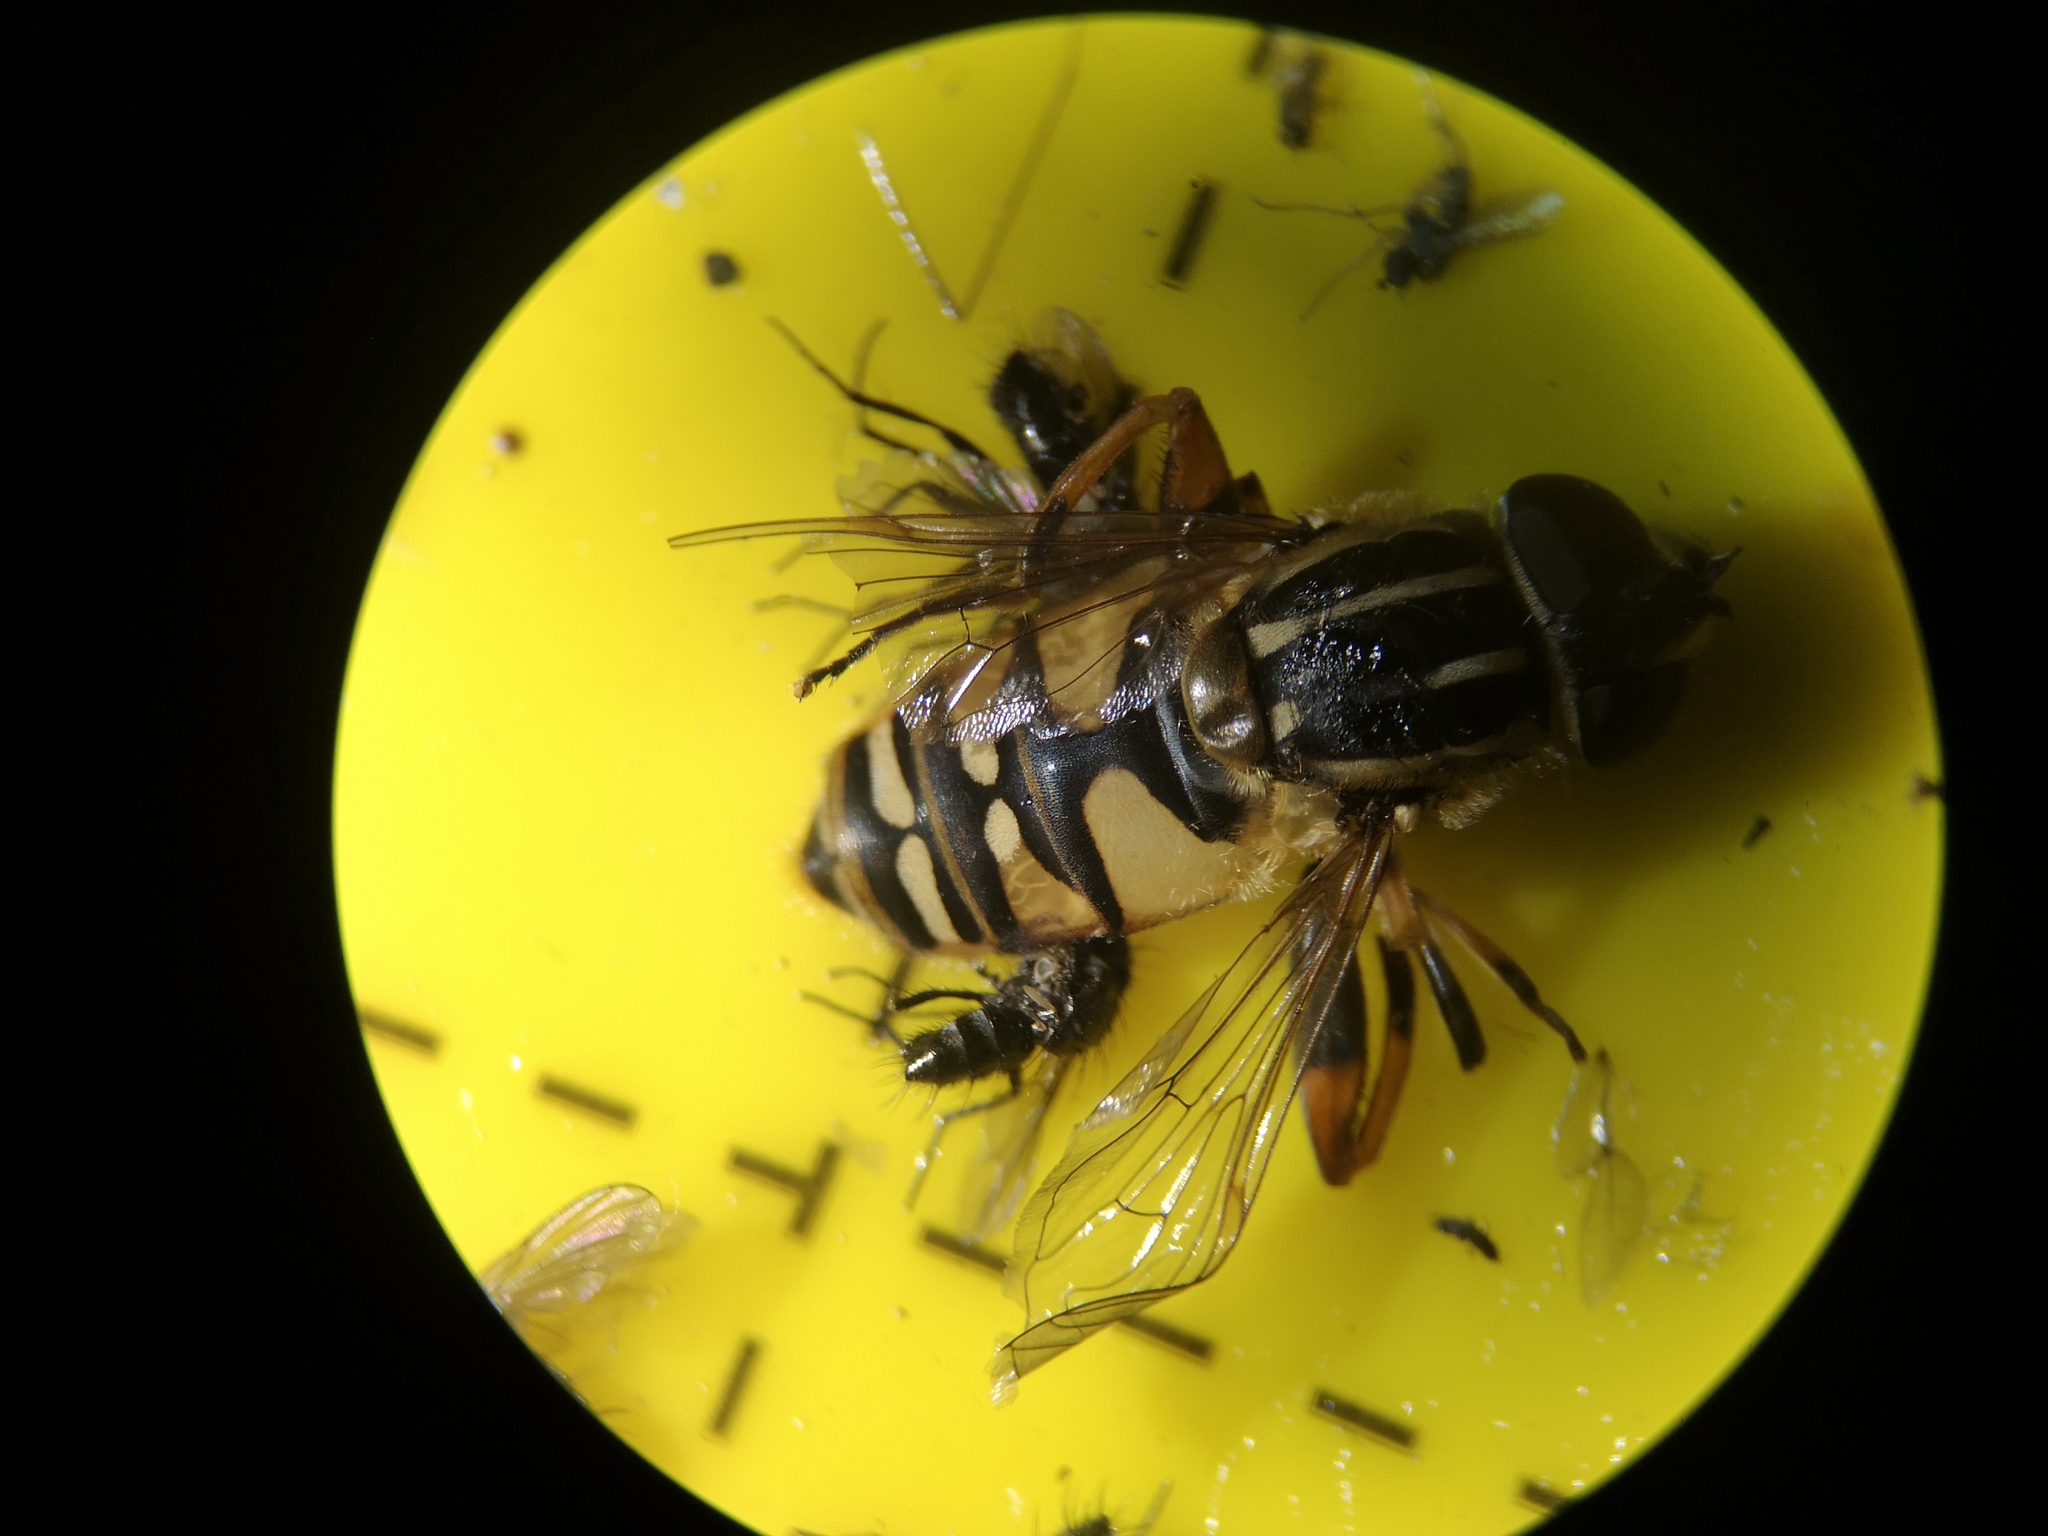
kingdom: Animalia
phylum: Arthropoda
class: Insecta
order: Diptera
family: Syrphidae
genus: Helophilus
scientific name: Helophilus pendulus
